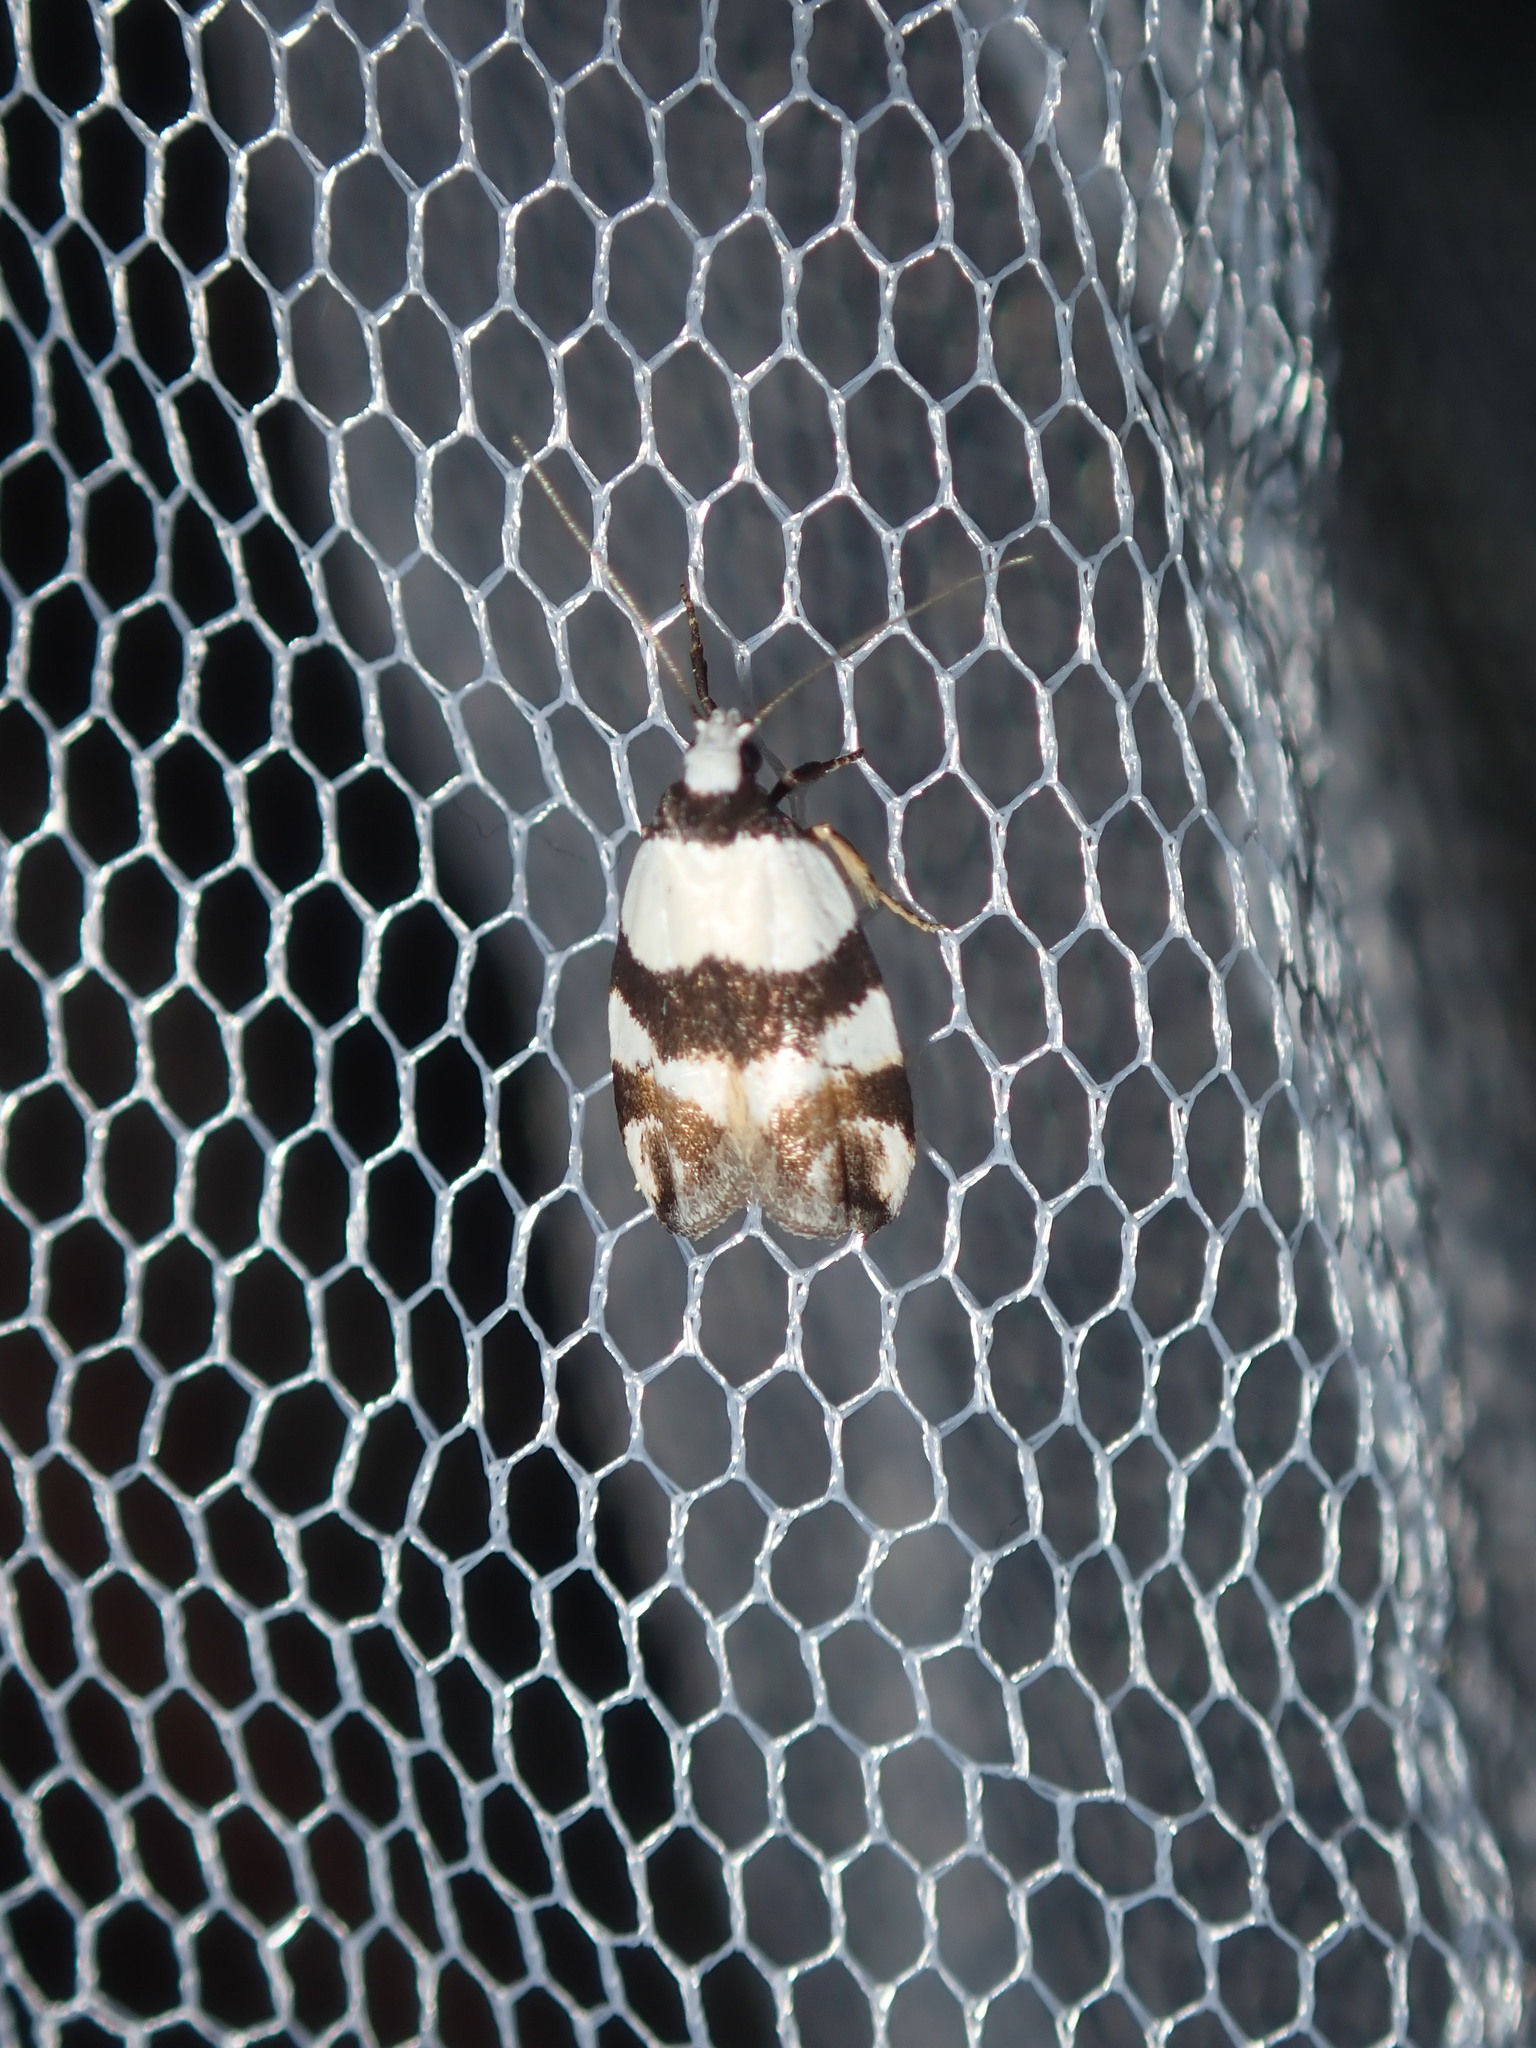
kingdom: Animalia
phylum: Arthropoda
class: Insecta
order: Lepidoptera
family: Oecophoridae
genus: Zonopetala
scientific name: Zonopetala decisana
